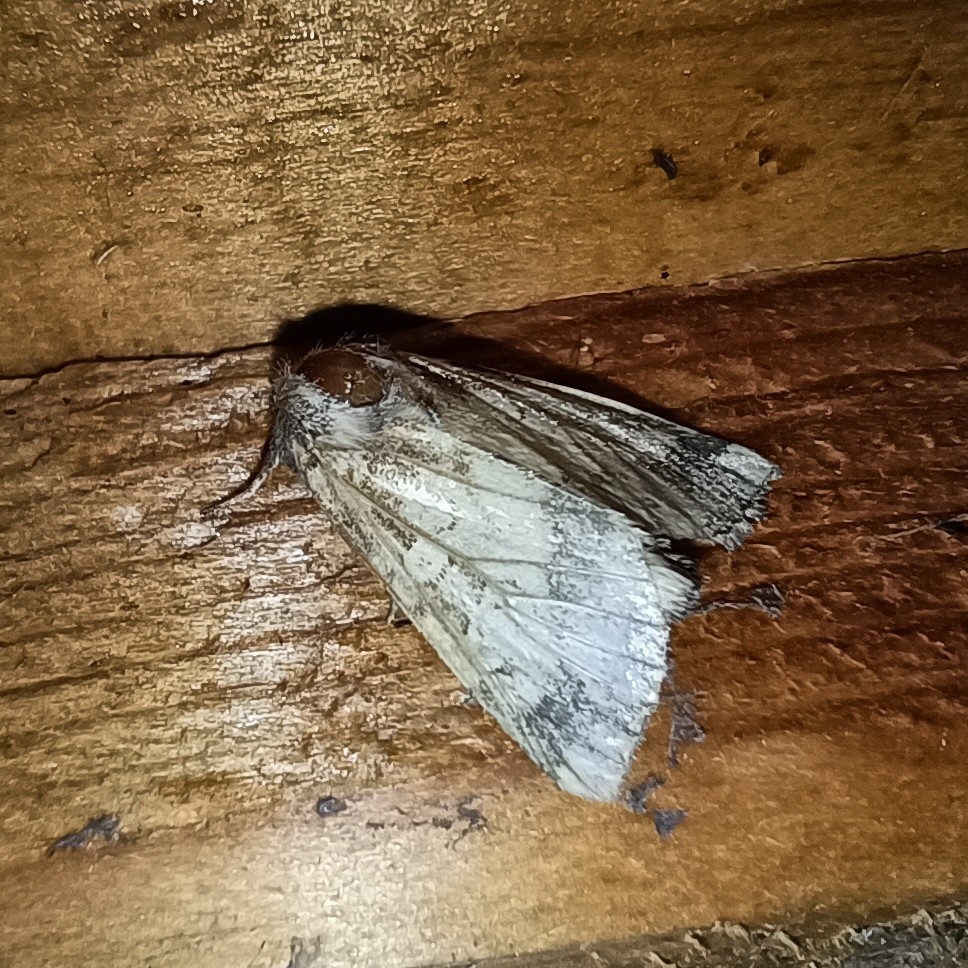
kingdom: Animalia
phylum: Arthropoda
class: Insecta
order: Lepidoptera
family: Noctuidae
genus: Gortyna
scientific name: Gortyna flavago
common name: Frosted orange
